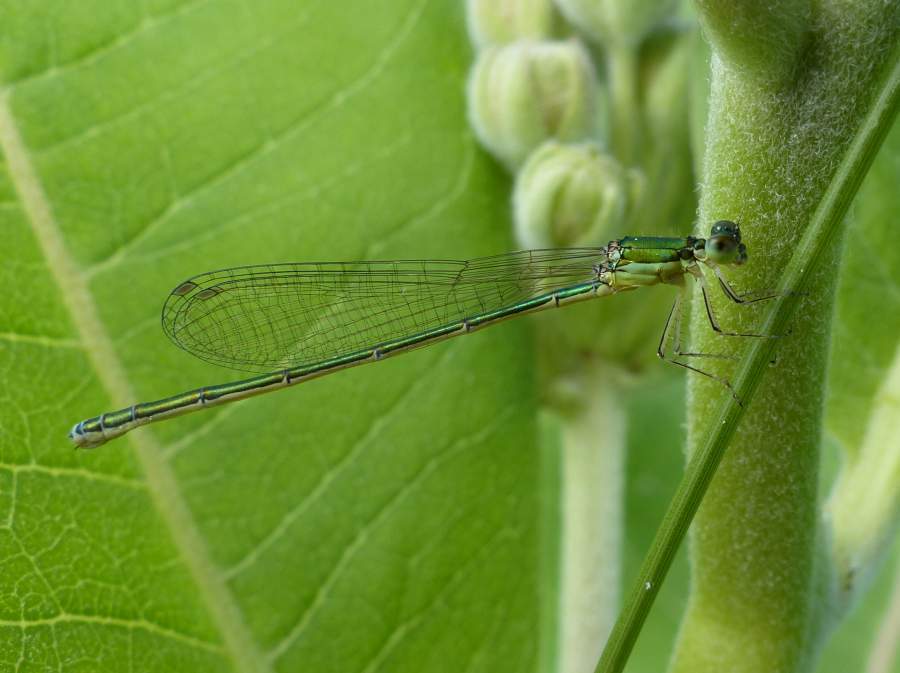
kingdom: Animalia
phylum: Arthropoda
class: Insecta
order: Odonata
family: Coenagrionidae
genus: Nehalennia
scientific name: Nehalennia irene
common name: Sedge sprite
